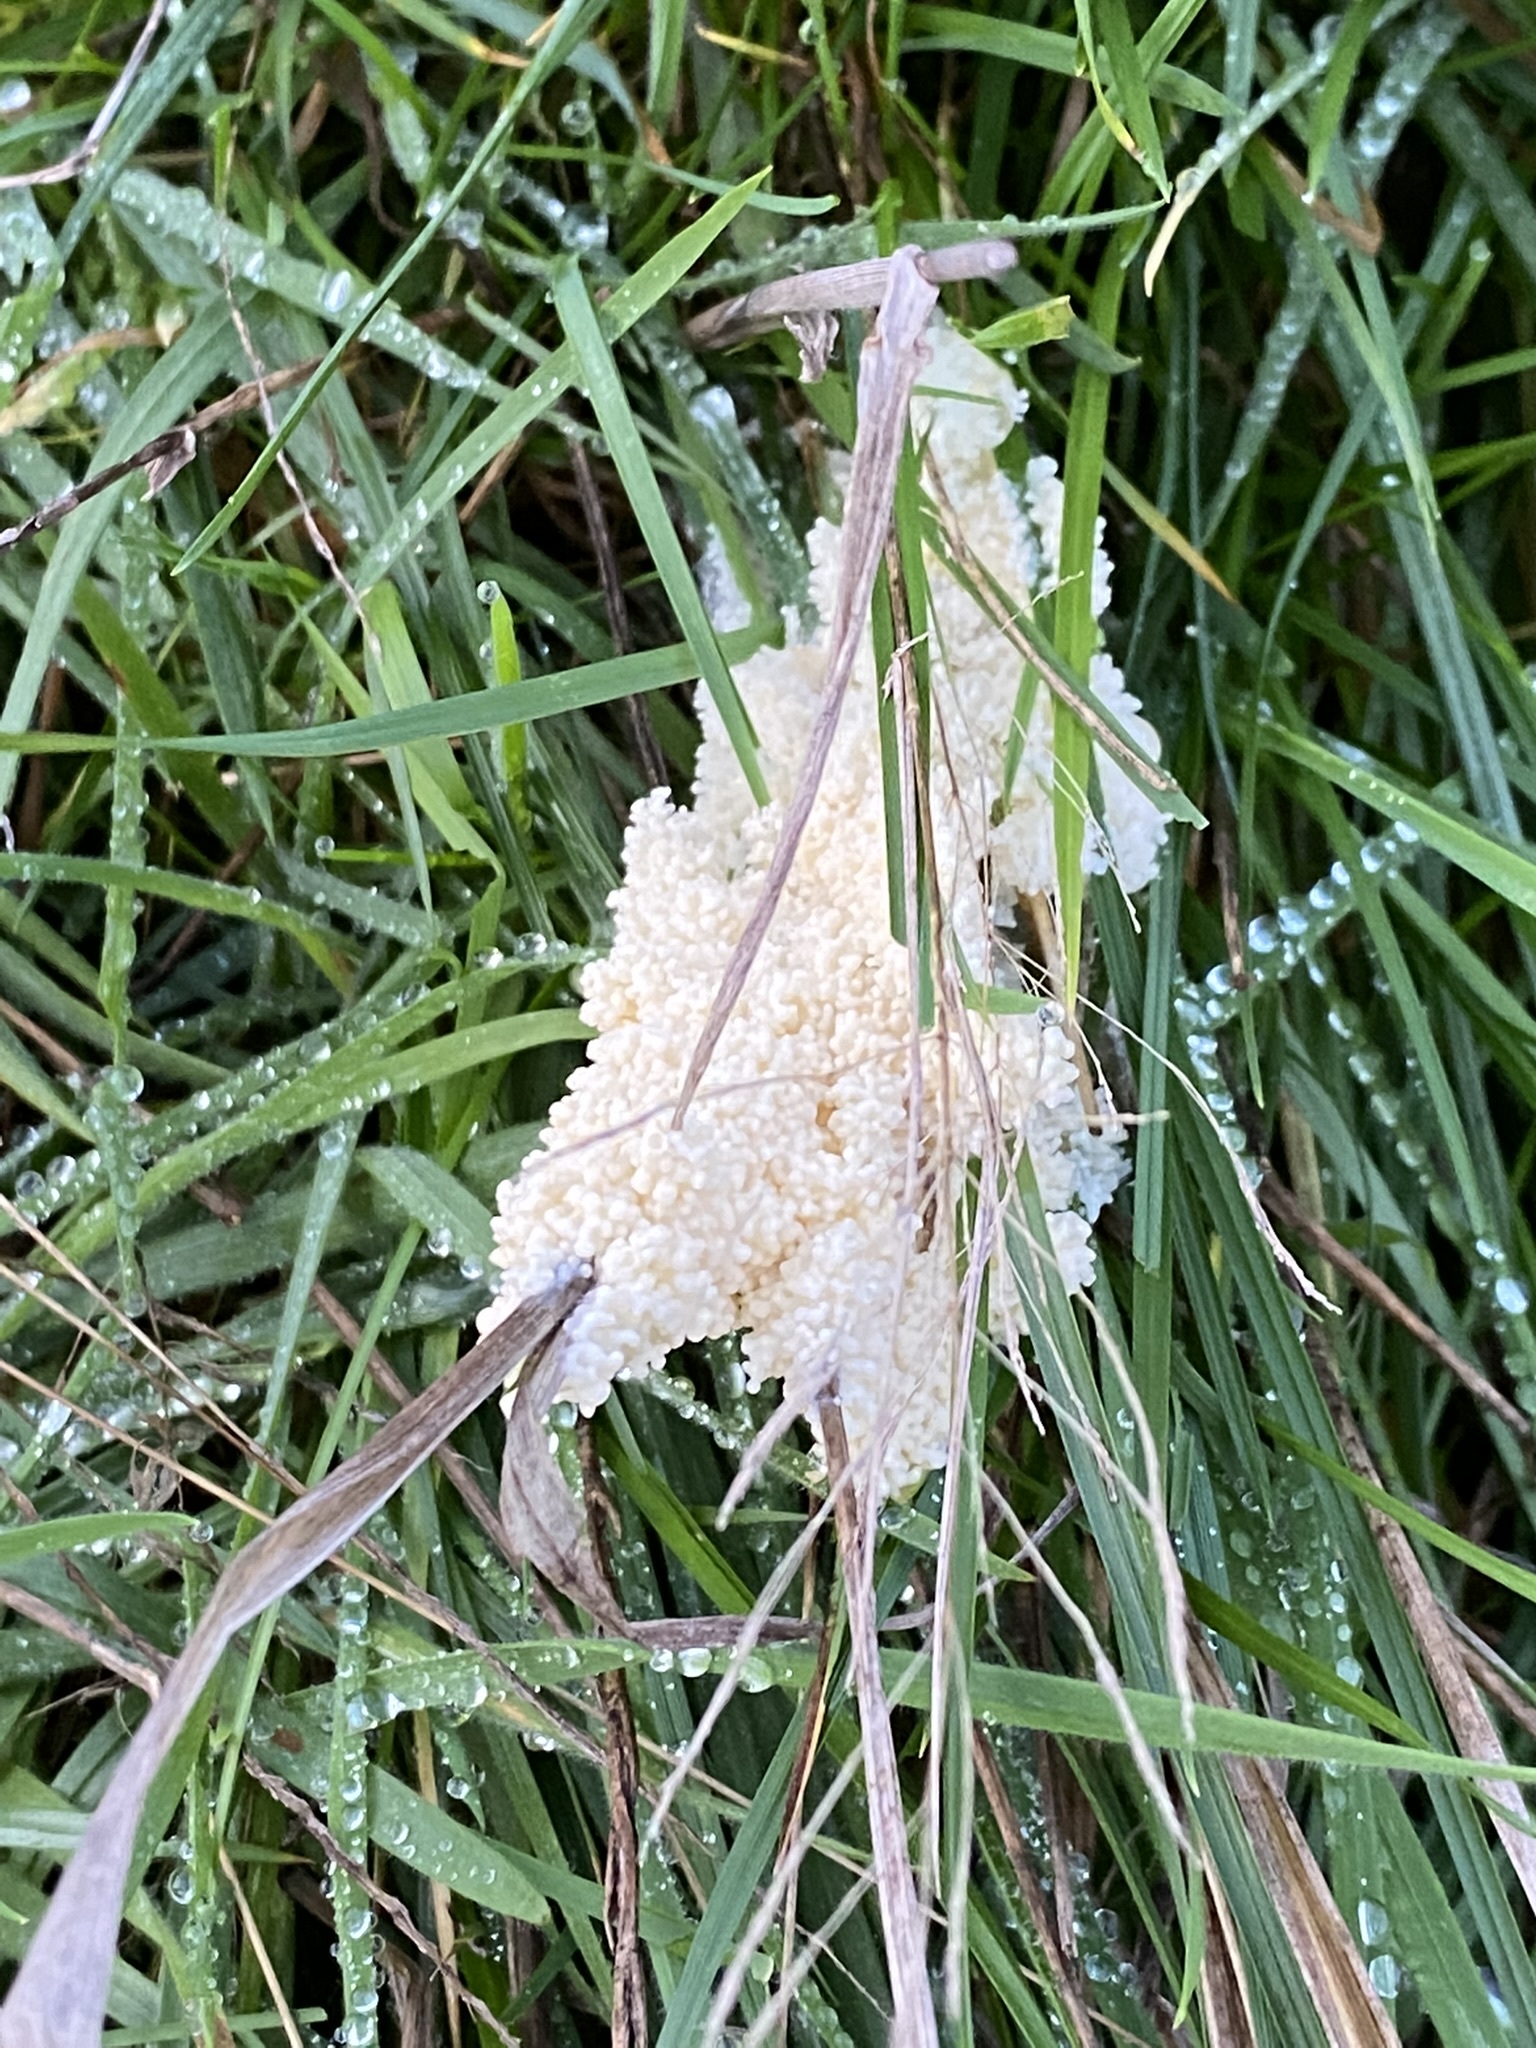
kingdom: Protozoa
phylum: Mycetozoa
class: Myxomycetes
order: Physarales
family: Physaraceae
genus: Didymium
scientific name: Didymium
